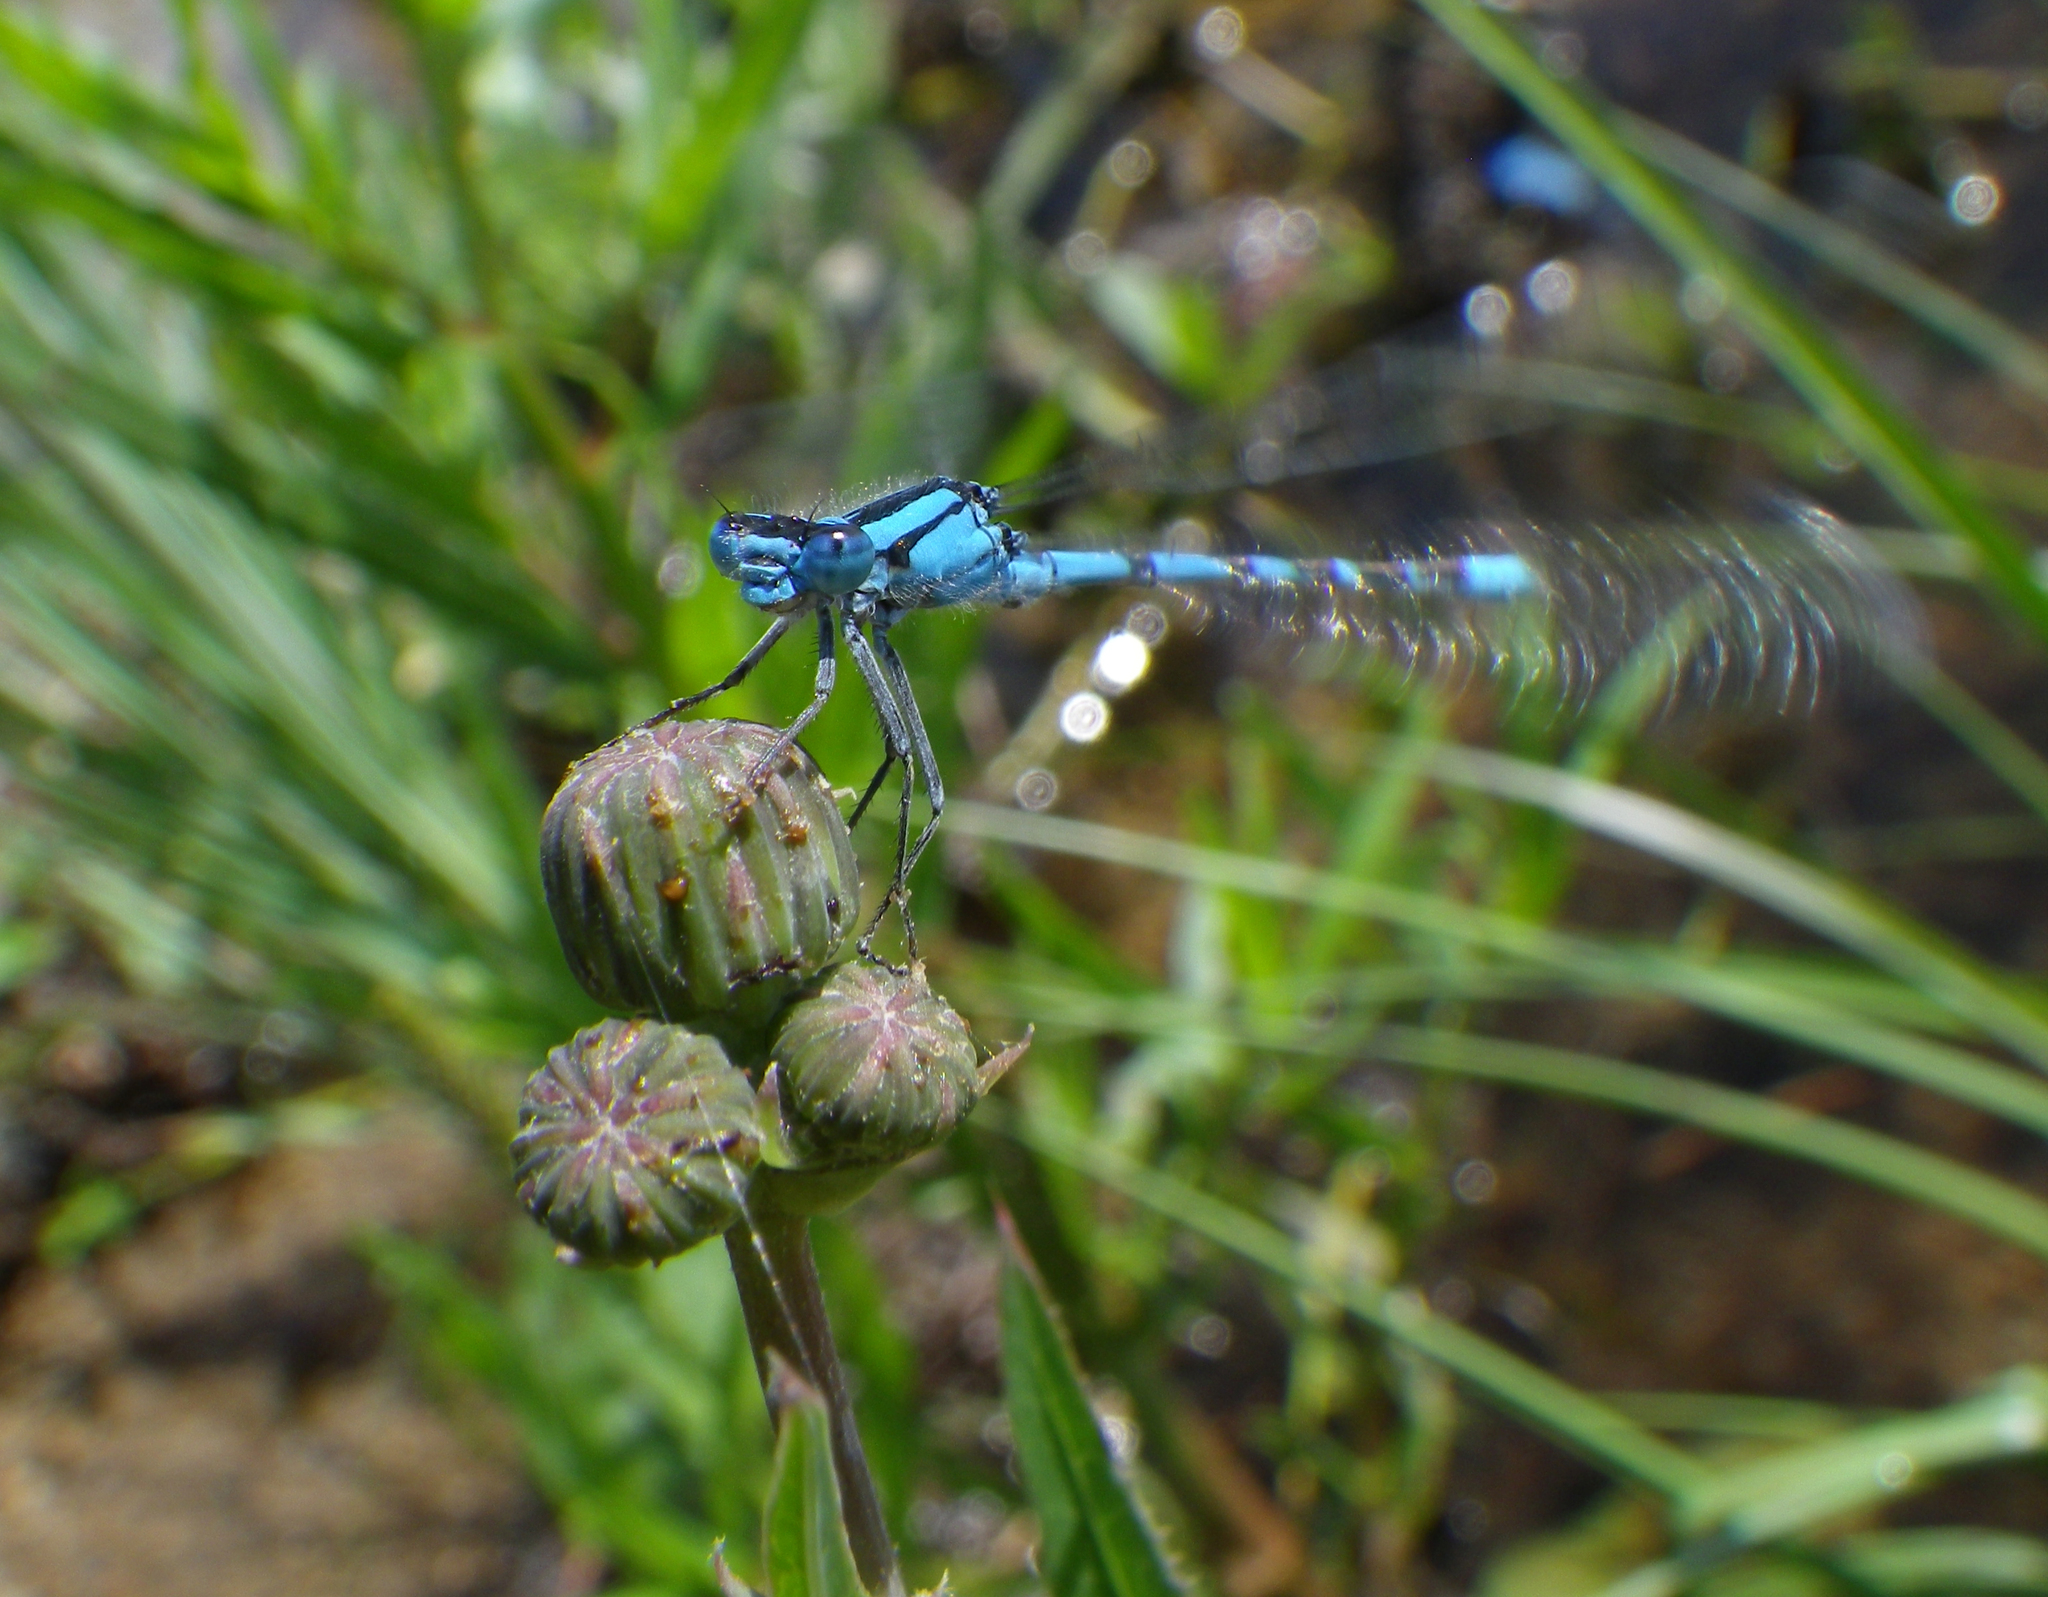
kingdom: Animalia
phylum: Arthropoda
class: Insecta
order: Odonata
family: Coenagrionidae
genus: Enallagma
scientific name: Enallagma cyathigerum
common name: Common blue damselfly
